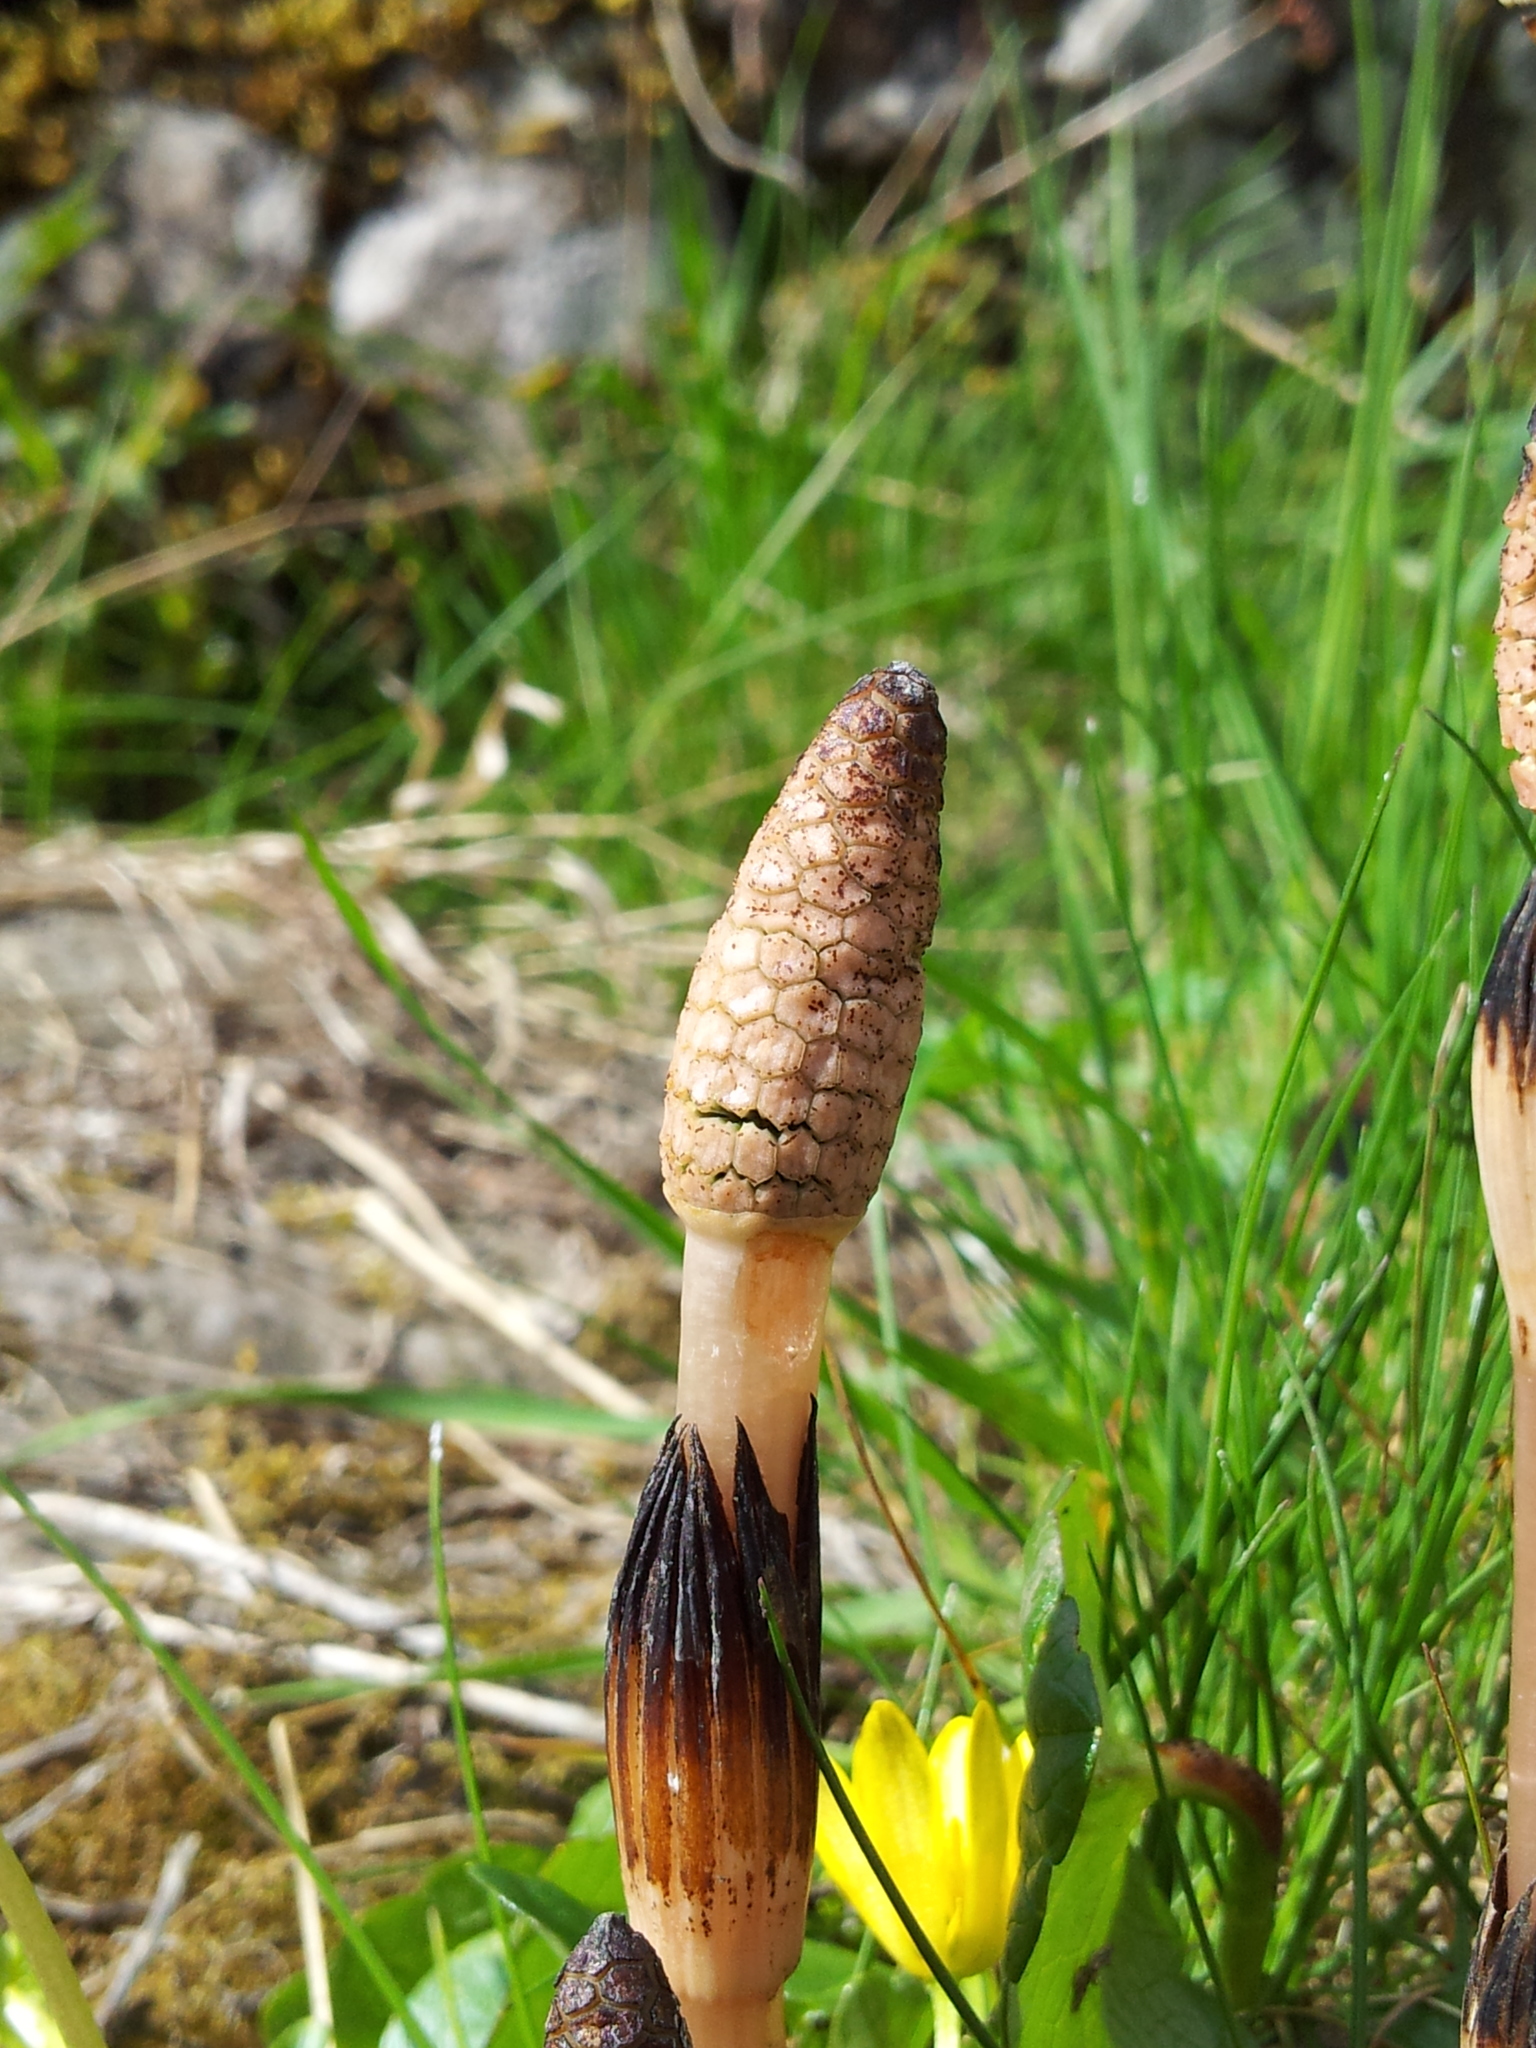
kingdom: Plantae
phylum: Tracheophyta
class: Polypodiopsida
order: Equisetales
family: Equisetaceae
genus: Equisetum
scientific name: Equisetum arvense
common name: Field horsetail
